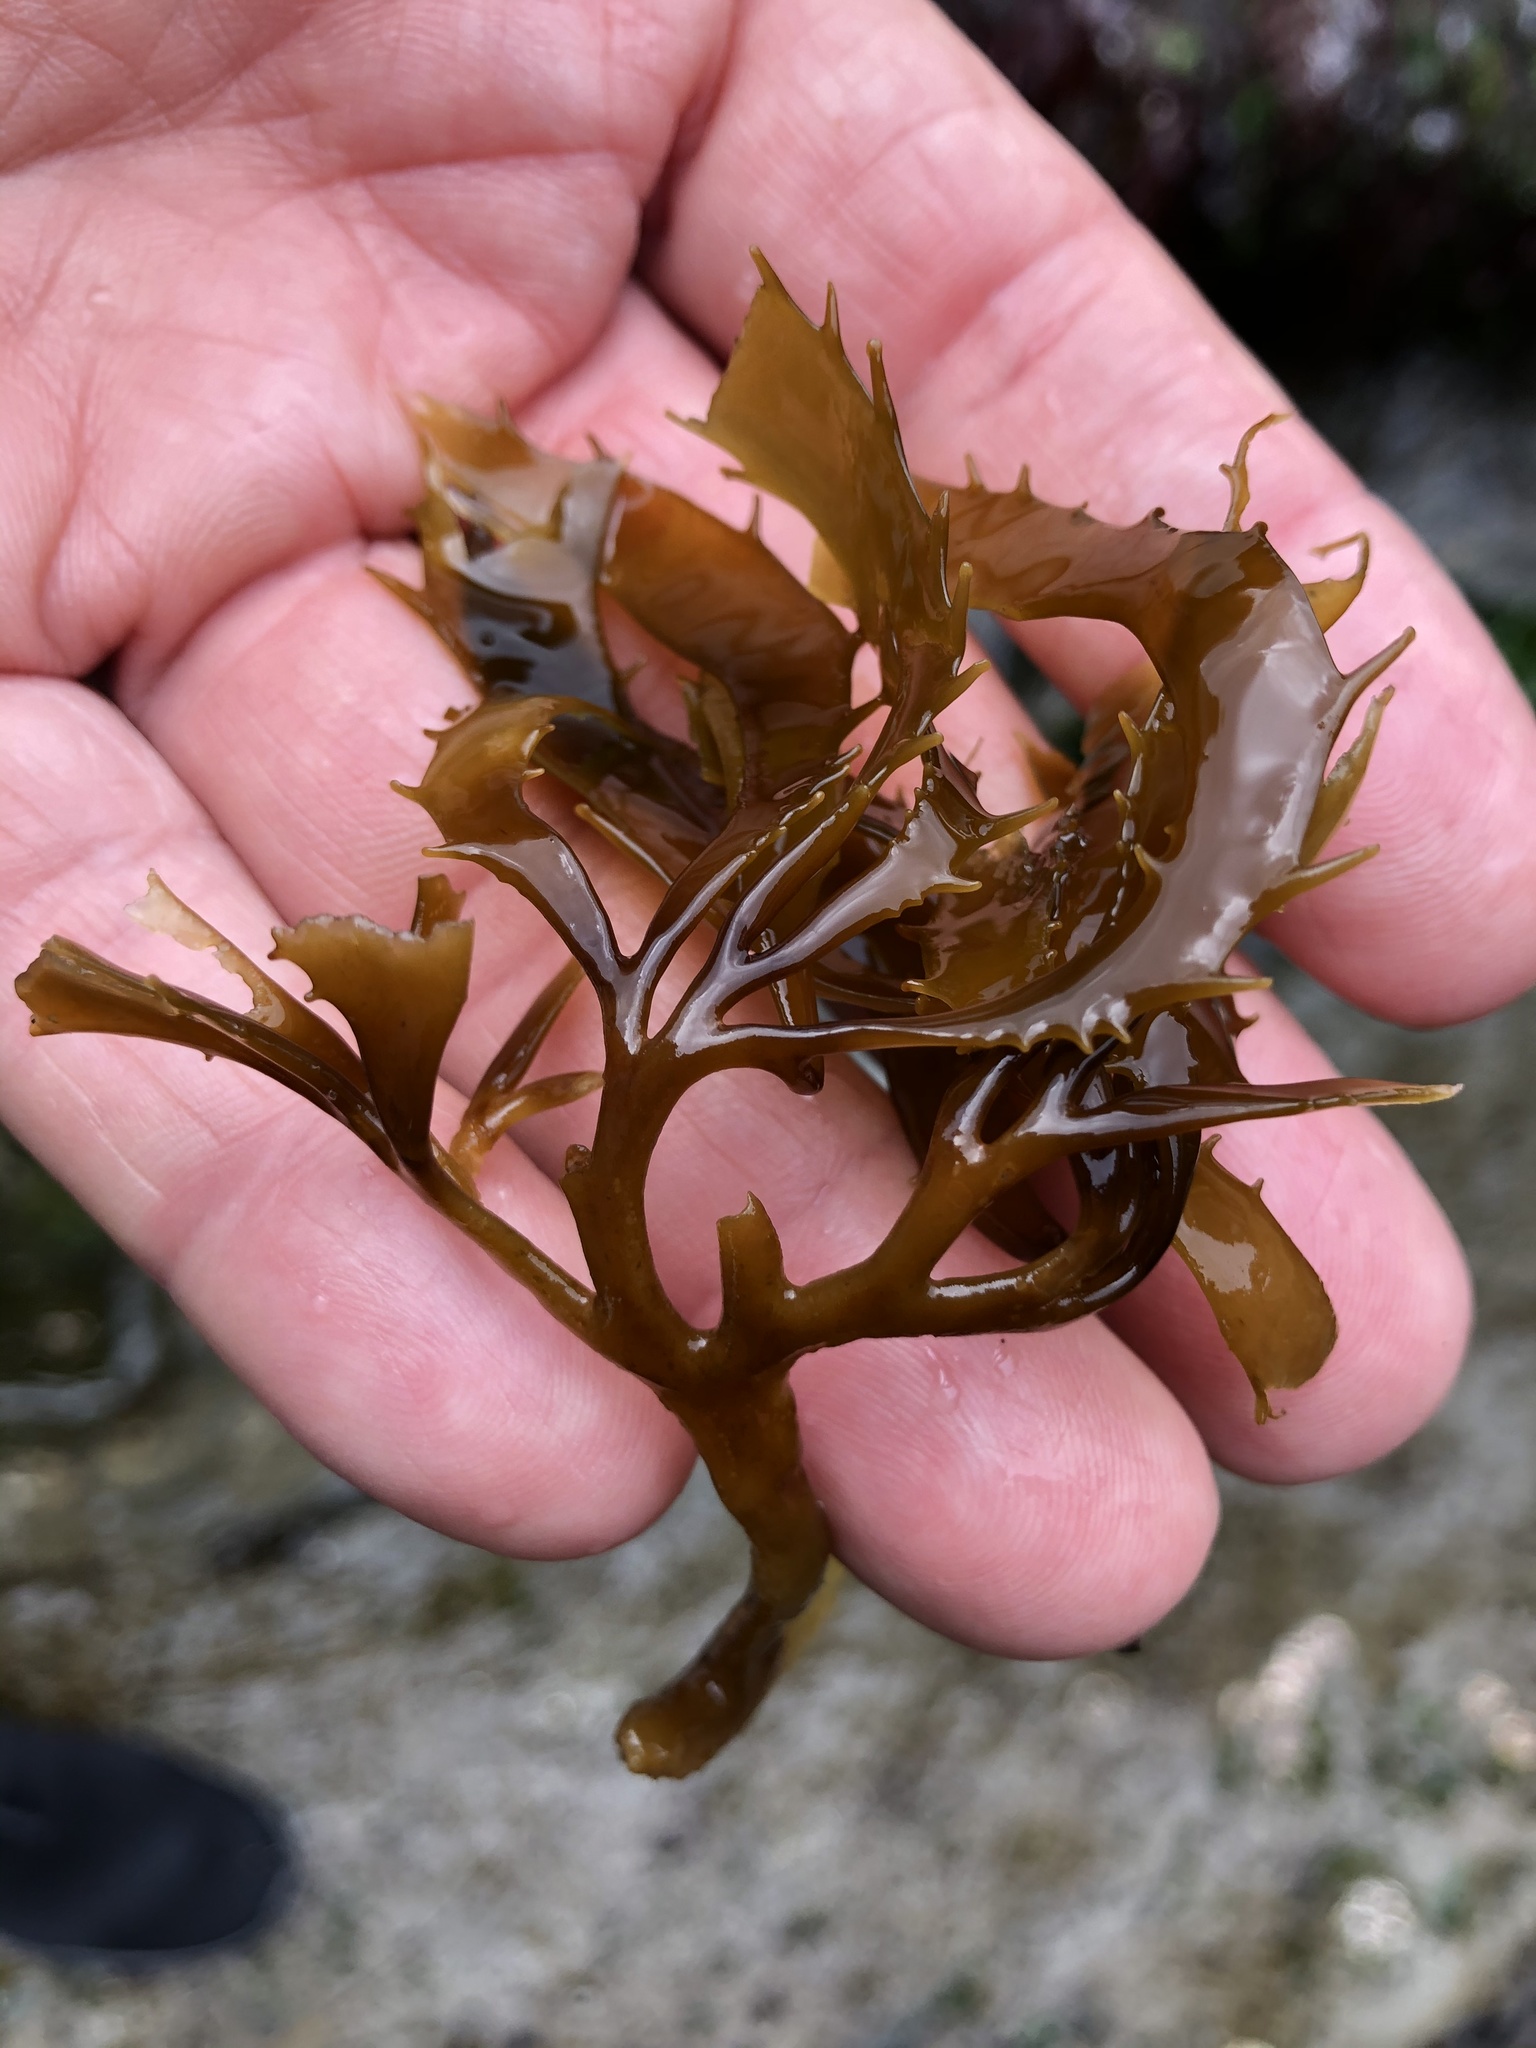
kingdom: Chromista
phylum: Ochrophyta
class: Phaeophyceae
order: Laminariales
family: Laminariaceae
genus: Macrocystis
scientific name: Macrocystis pyrifera
